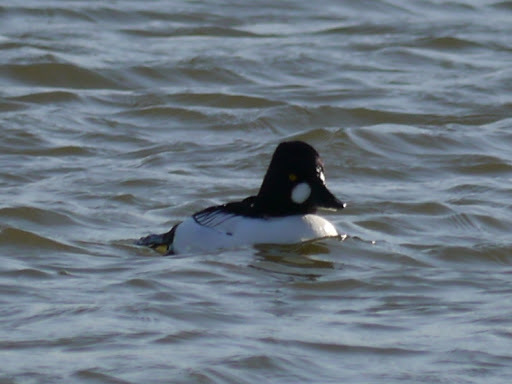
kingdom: Animalia
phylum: Chordata
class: Aves
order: Anseriformes
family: Anatidae
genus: Bucephala
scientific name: Bucephala clangula
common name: Common goldeneye
